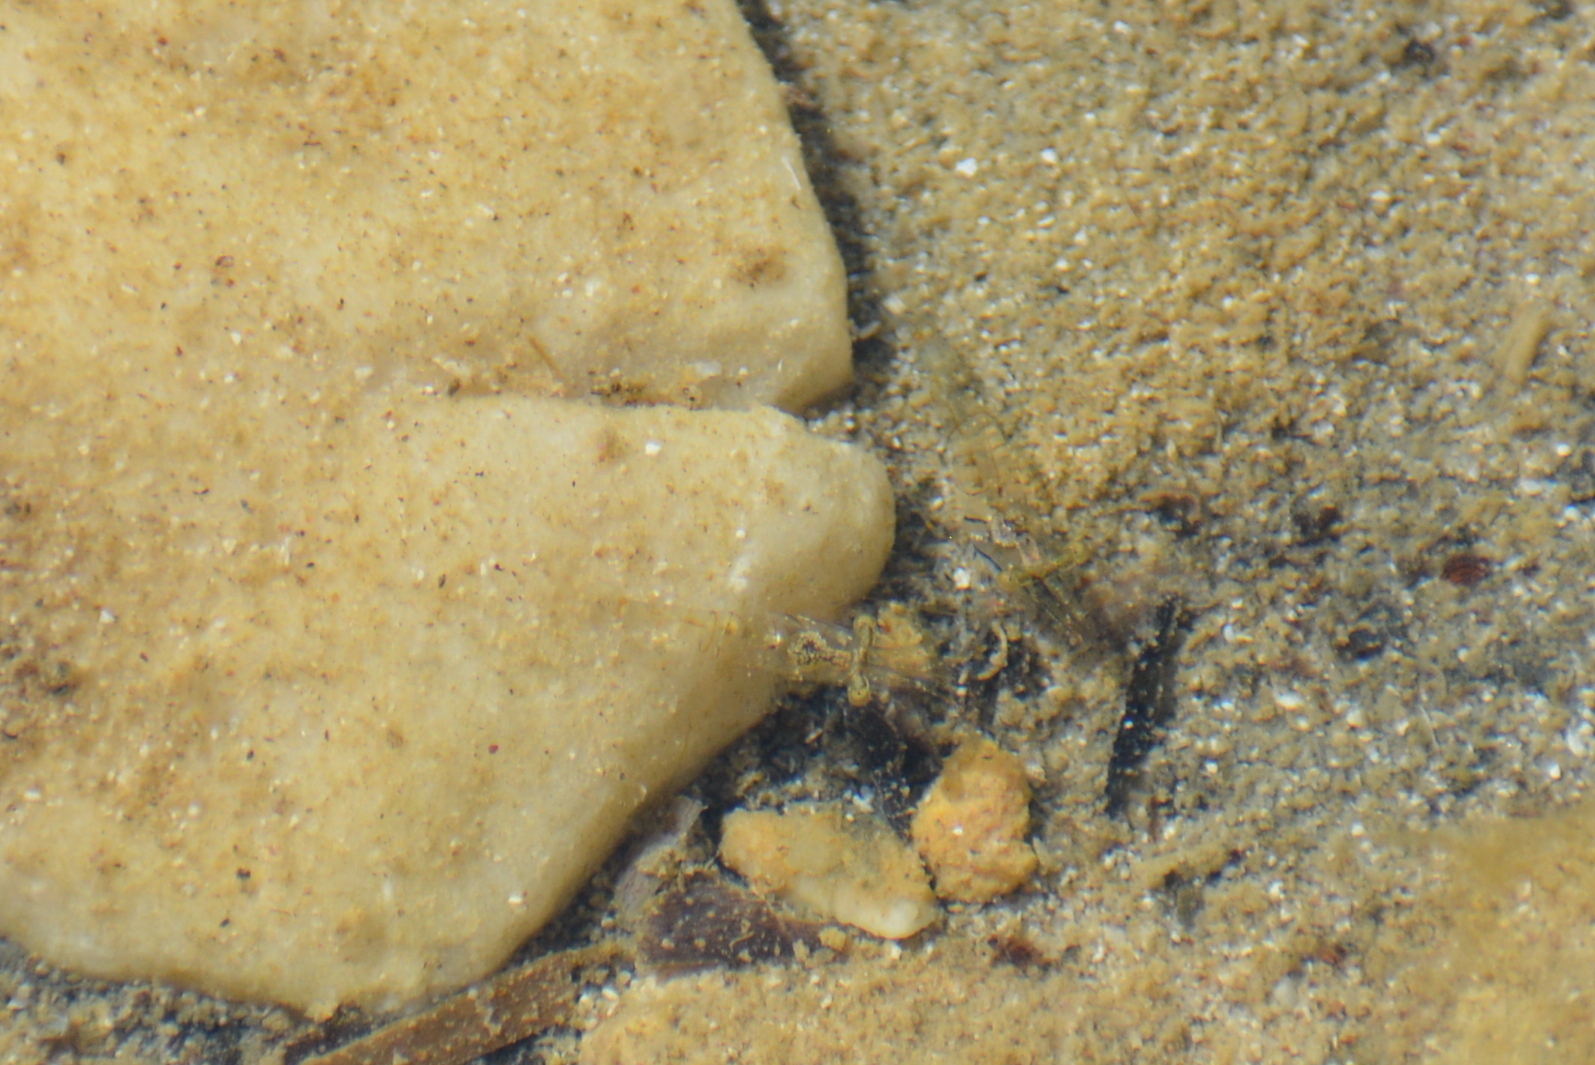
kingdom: Animalia
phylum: Arthropoda
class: Malacostraca
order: Decapoda
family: Palaemonidae
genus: Palaemon
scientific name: Palaemon elegans
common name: Grass prawm
